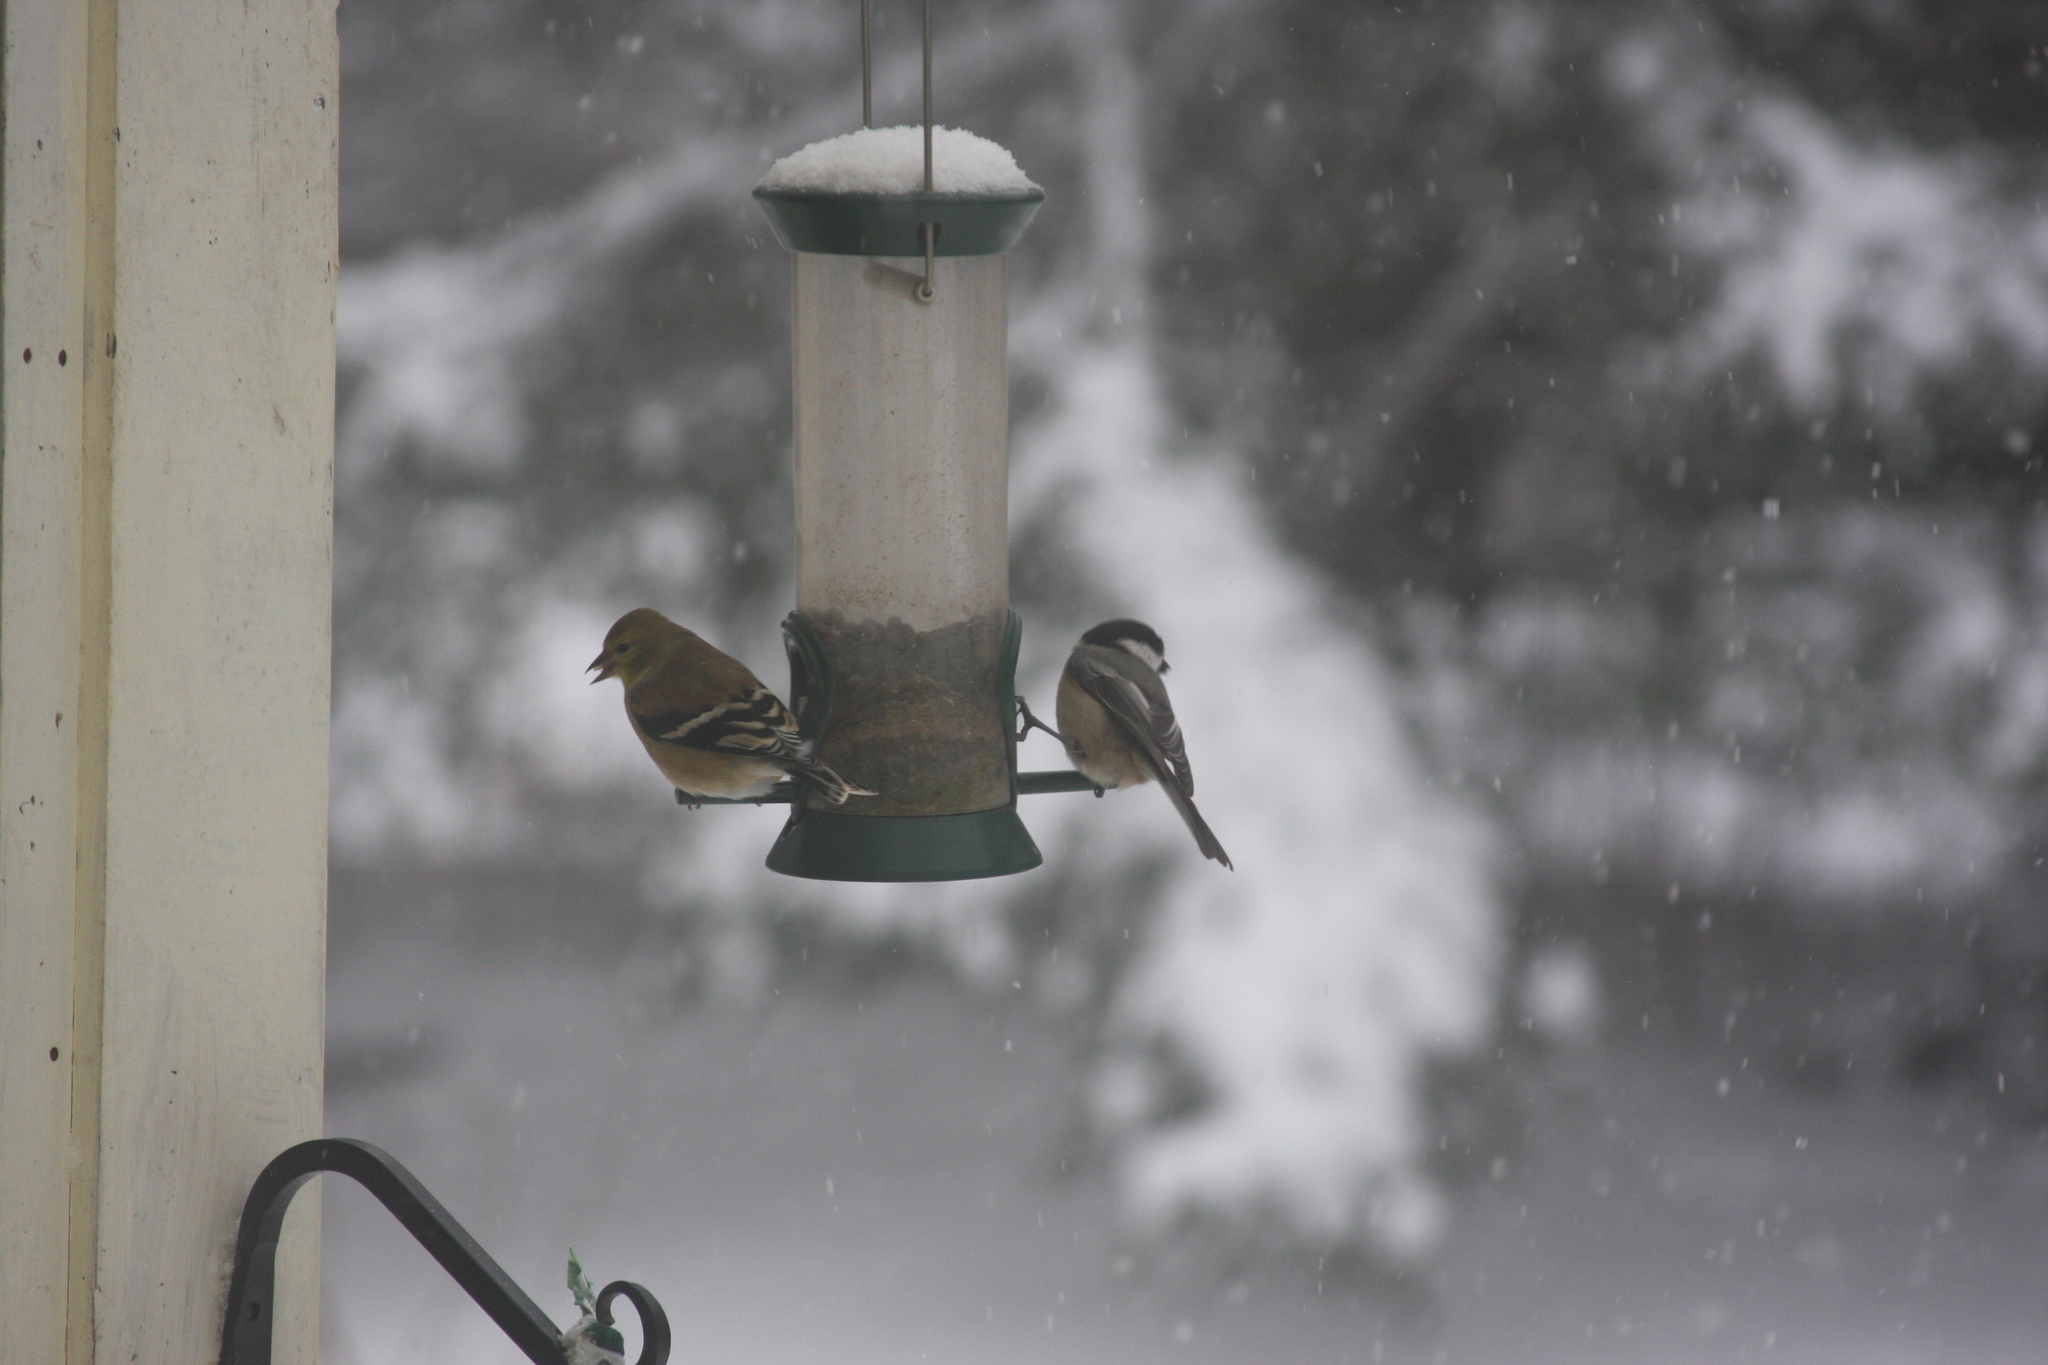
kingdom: Animalia
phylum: Chordata
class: Aves
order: Passeriformes
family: Fringillidae
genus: Spinus
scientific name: Spinus tristis
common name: American goldfinch
